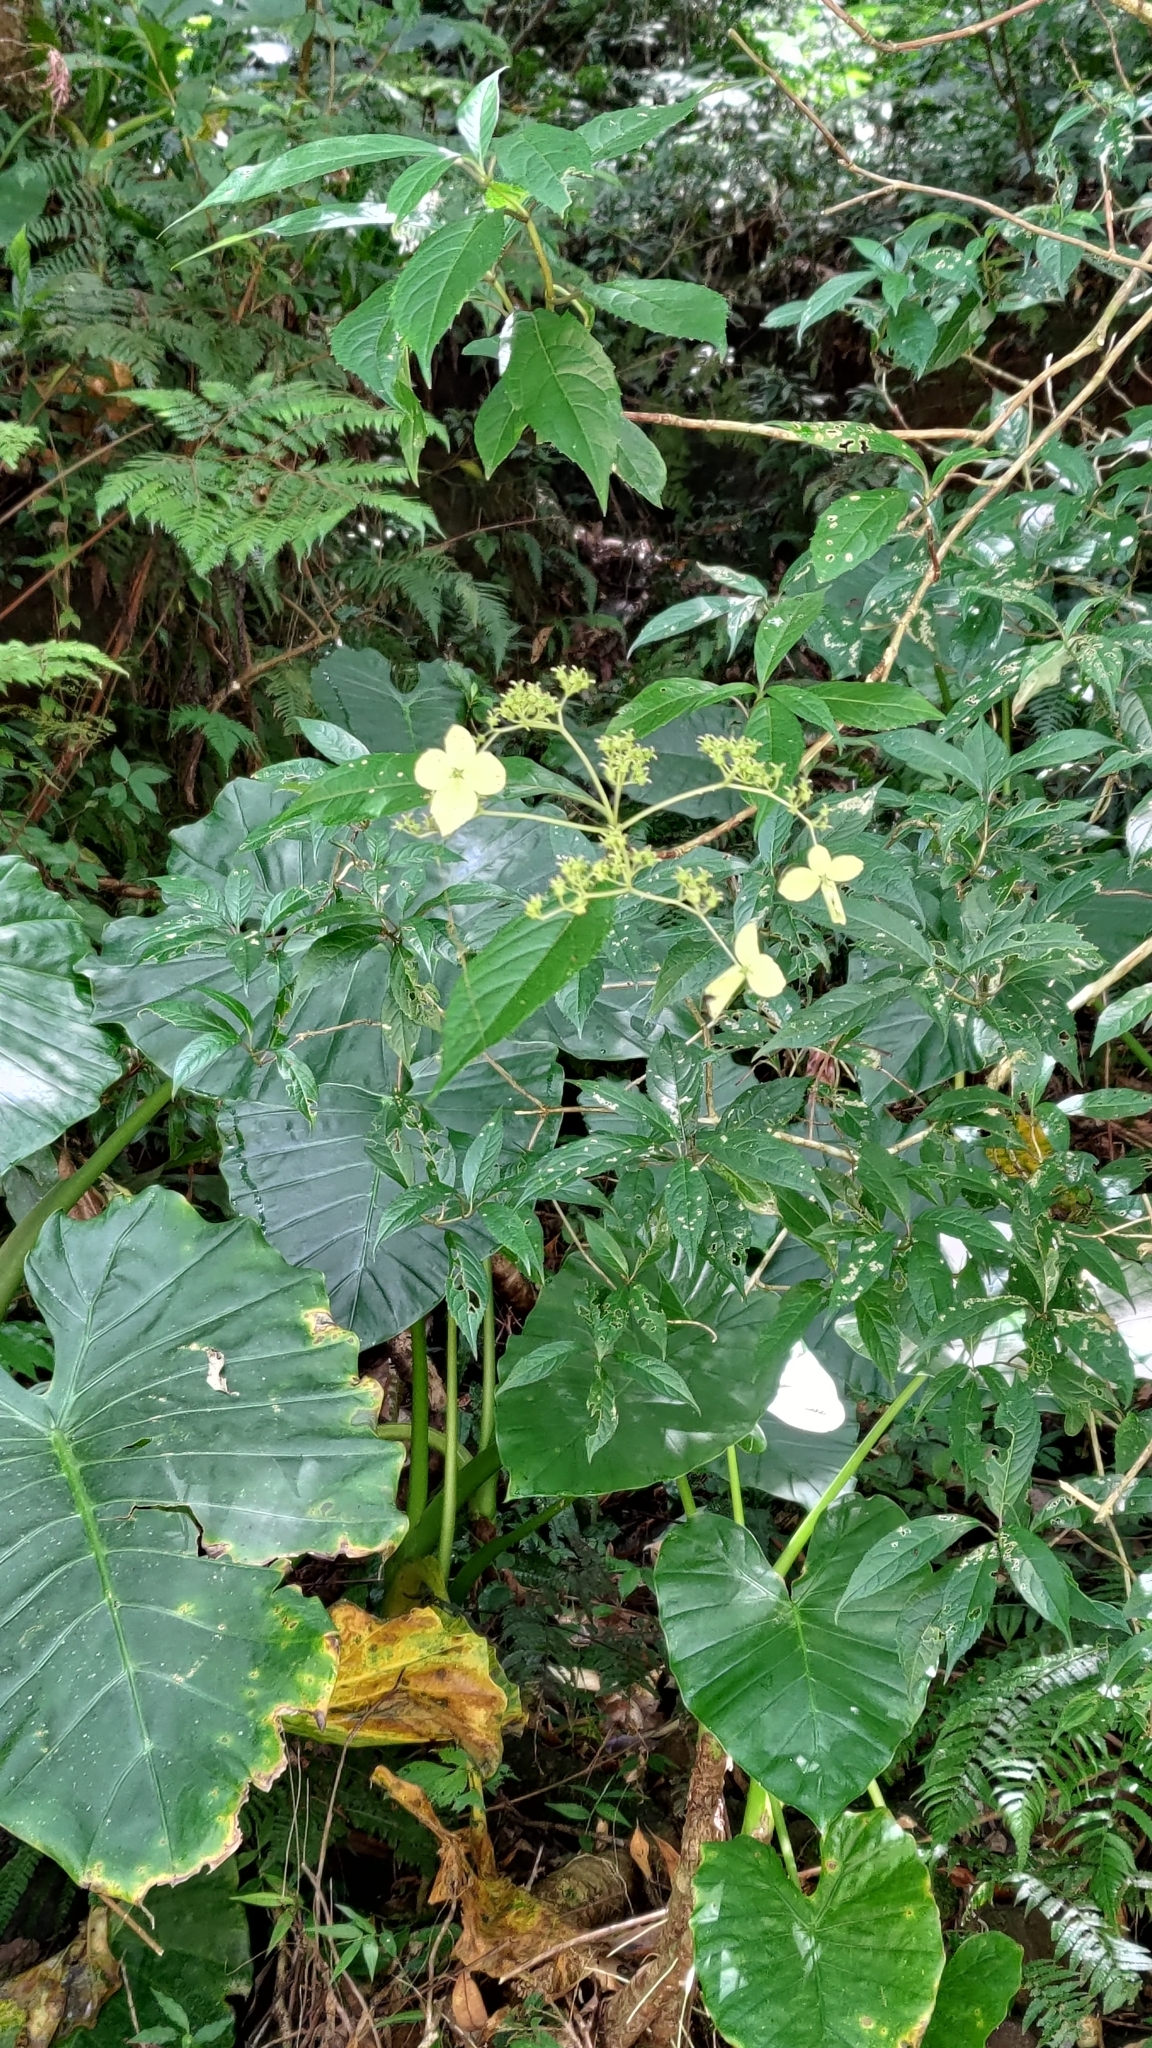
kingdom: Plantae
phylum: Tracheophyta
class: Magnoliopsida
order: Cornales
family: Hydrangeaceae
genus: Hydrangea
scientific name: Hydrangea chinensis
